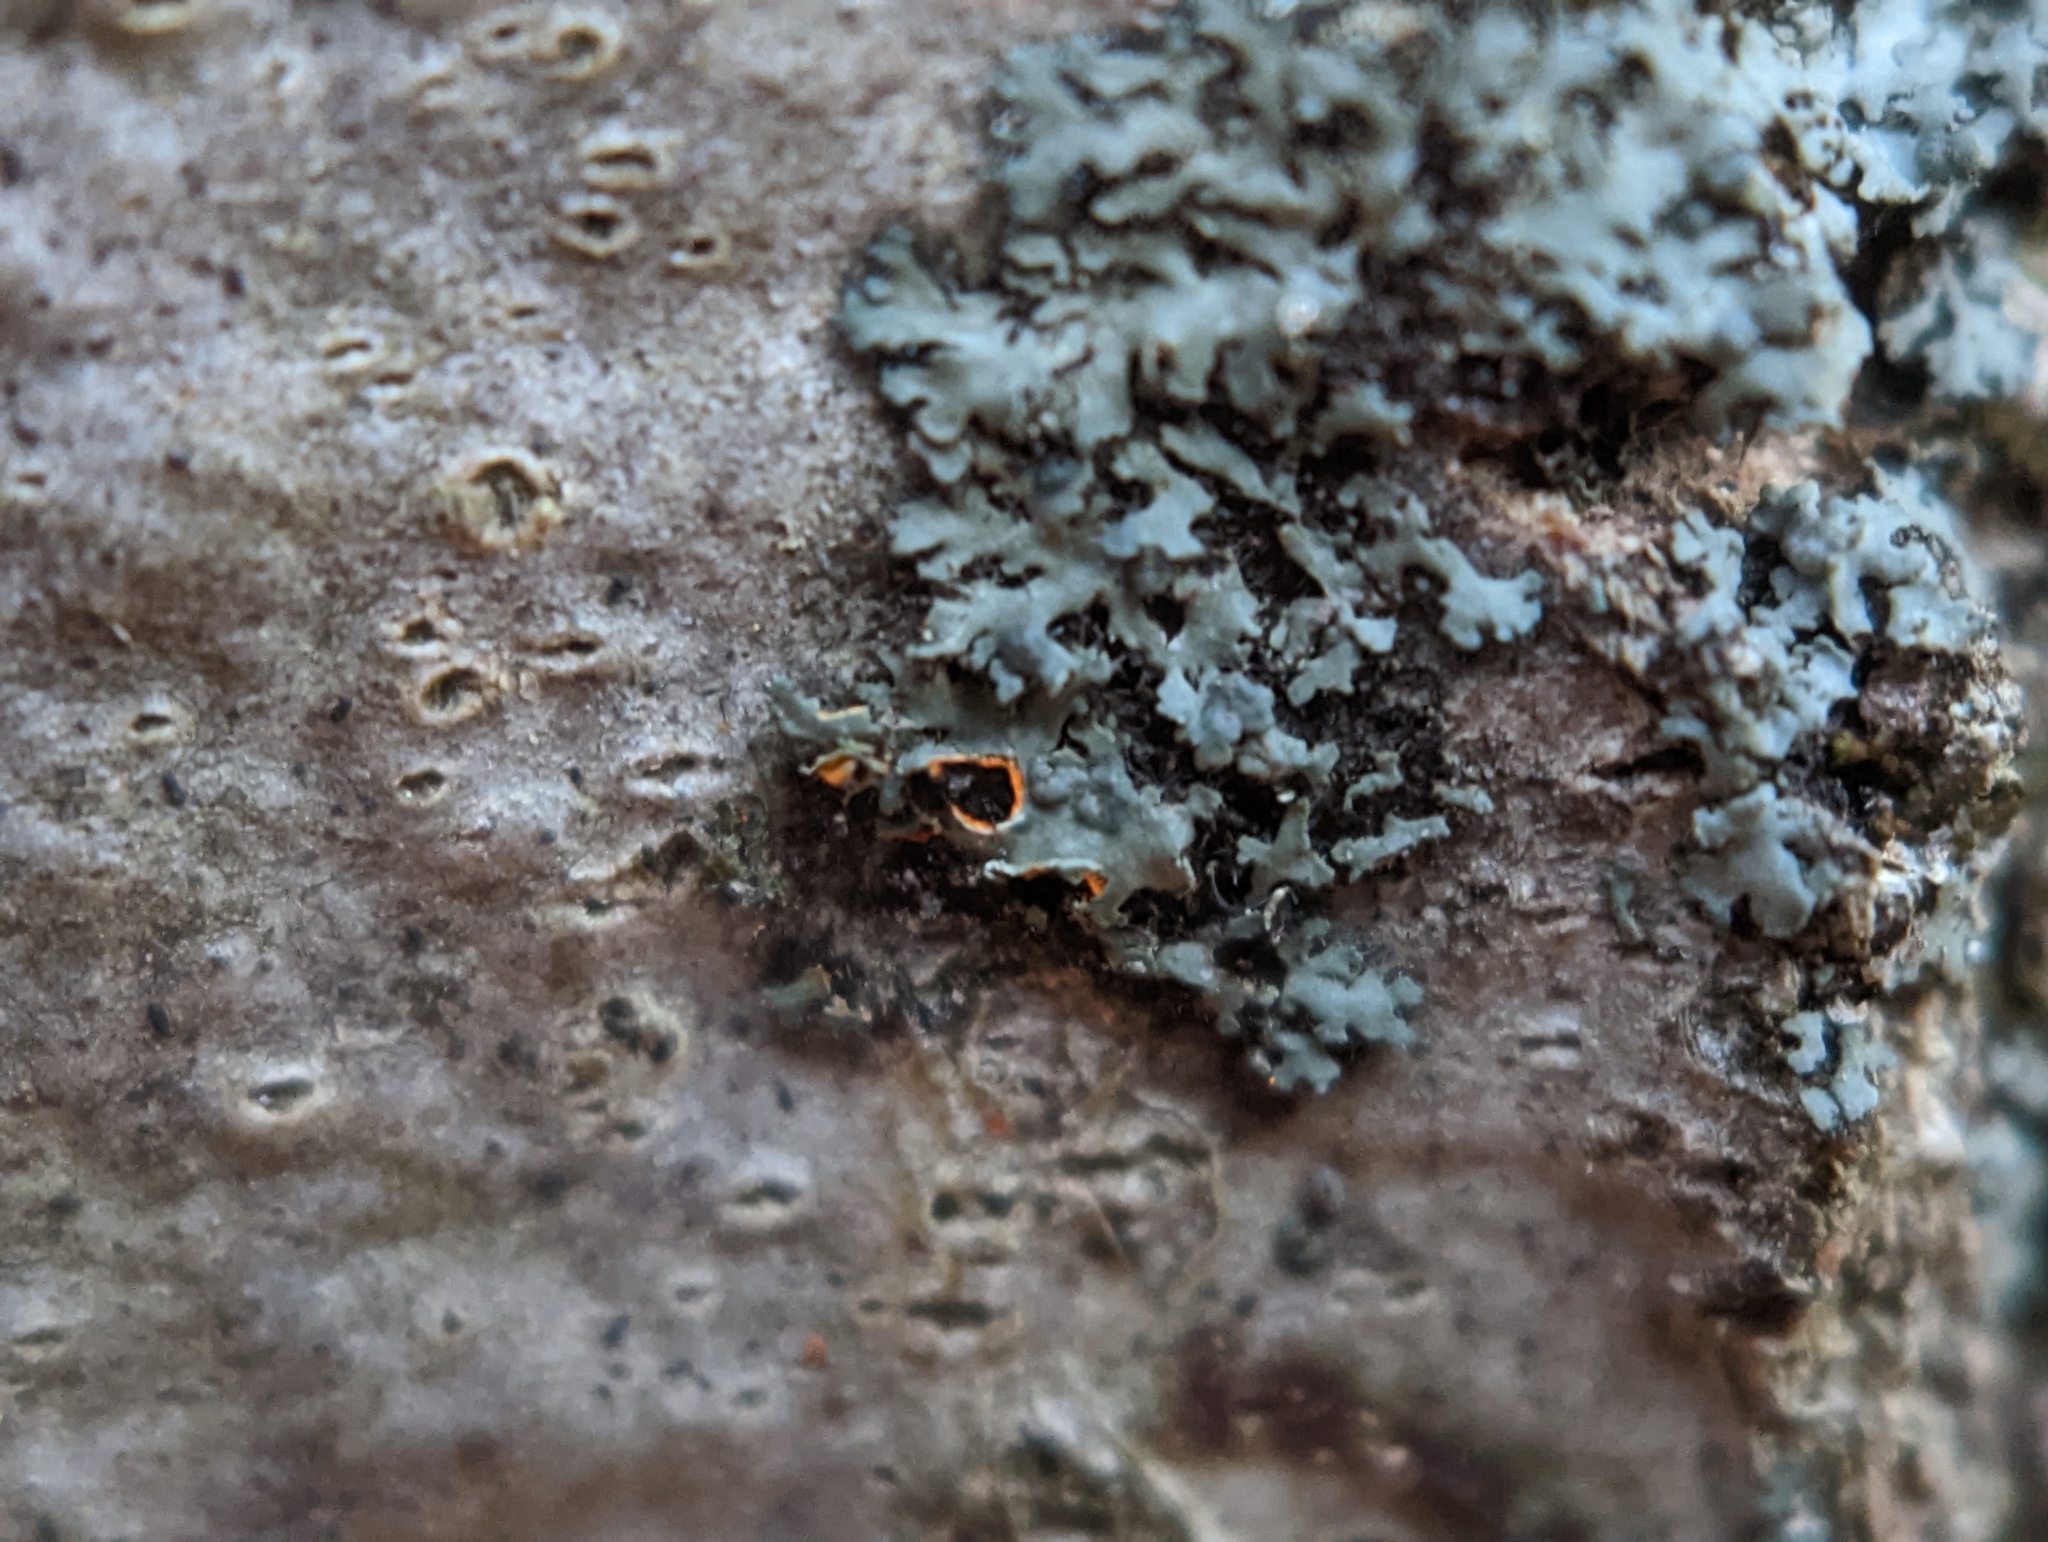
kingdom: Fungi
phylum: Ascomycota
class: Lecanoromycetes
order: Caliciales
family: Physciaceae
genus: Phaeophyscia
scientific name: Phaeophyscia rubropulchra
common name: Orange-cored shadow lichen
